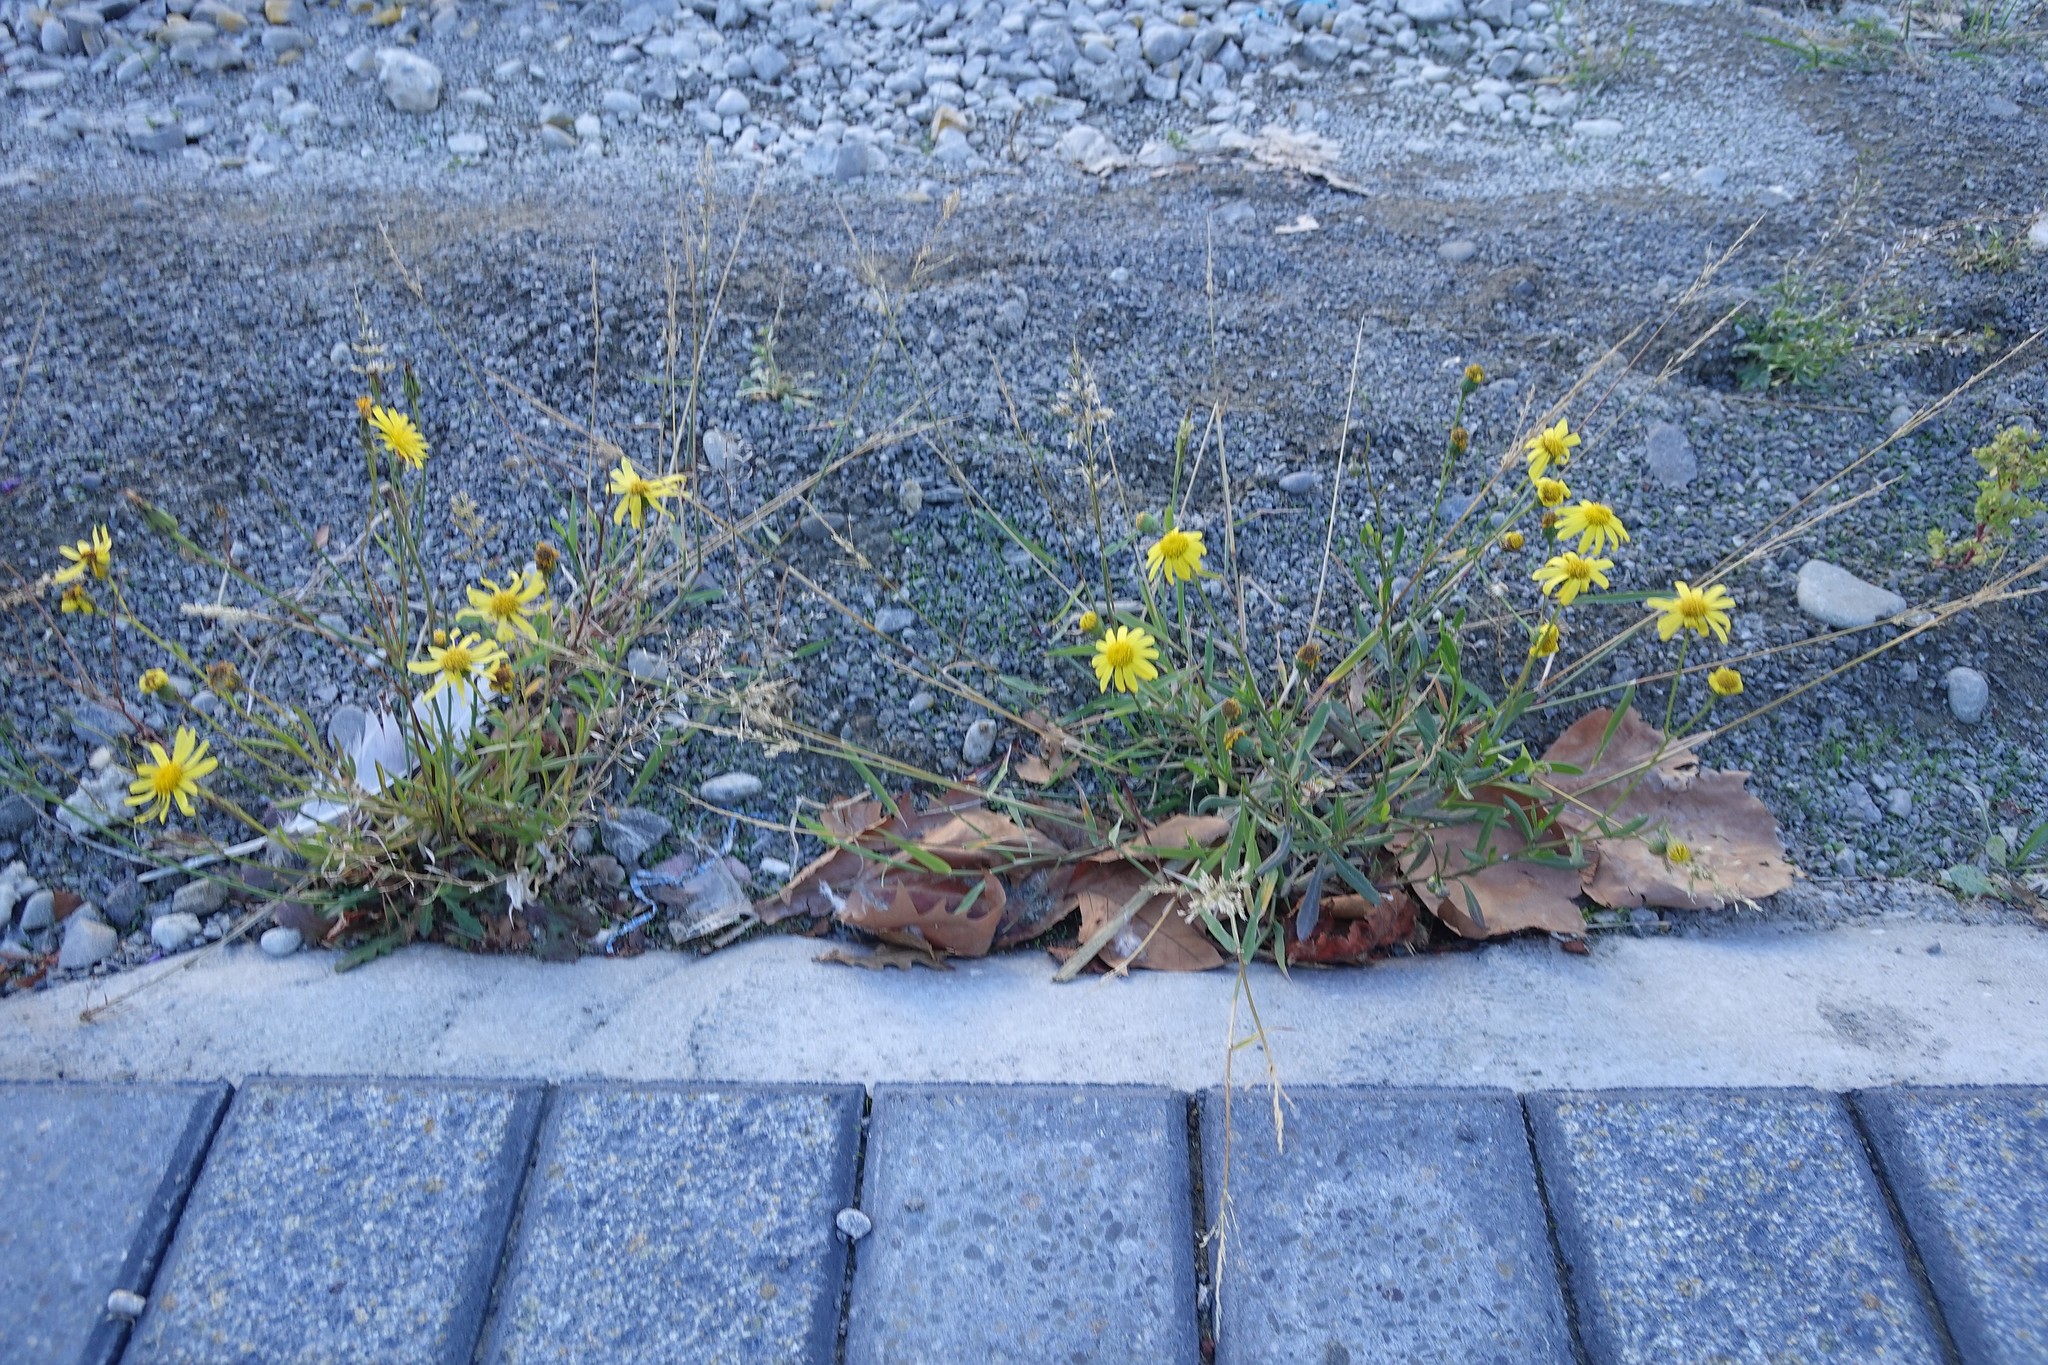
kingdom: Plantae
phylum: Tracheophyta
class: Magnoliopsida
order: Asterales
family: Asteraceae
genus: Senecio
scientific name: Senecio skirrhodon
